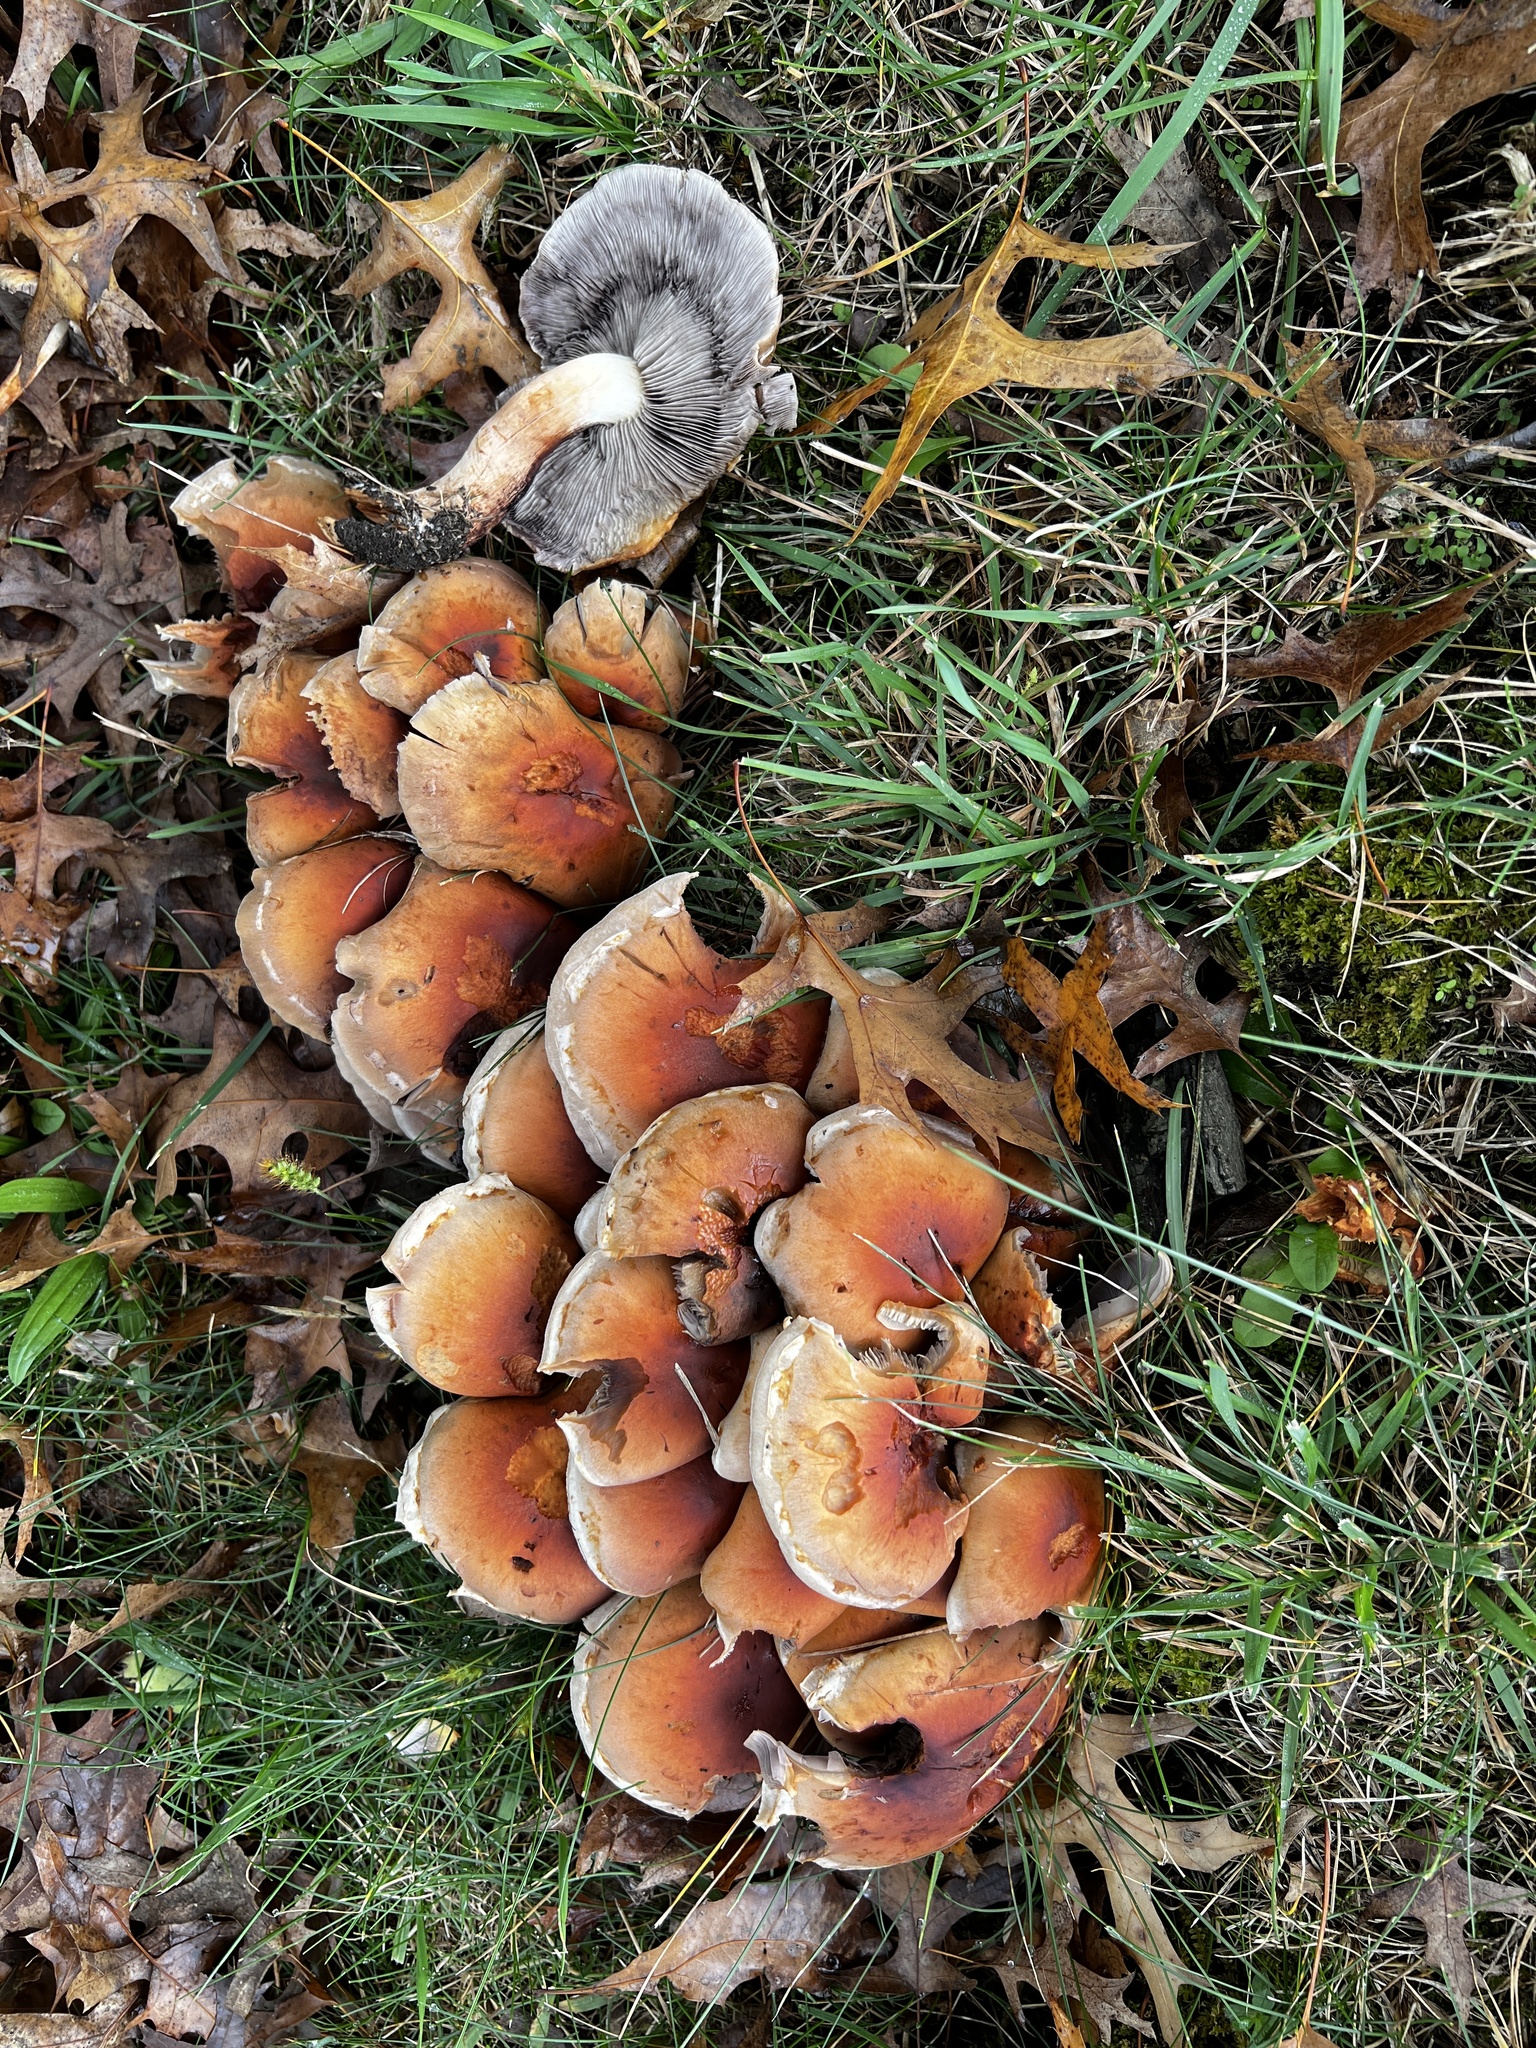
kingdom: Fungi
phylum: Basidiomycota
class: Agaricomycetes
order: Agaricales
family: Strophariaceae
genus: Hypholoma
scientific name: Hypholoma lateritium
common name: Brick caps
